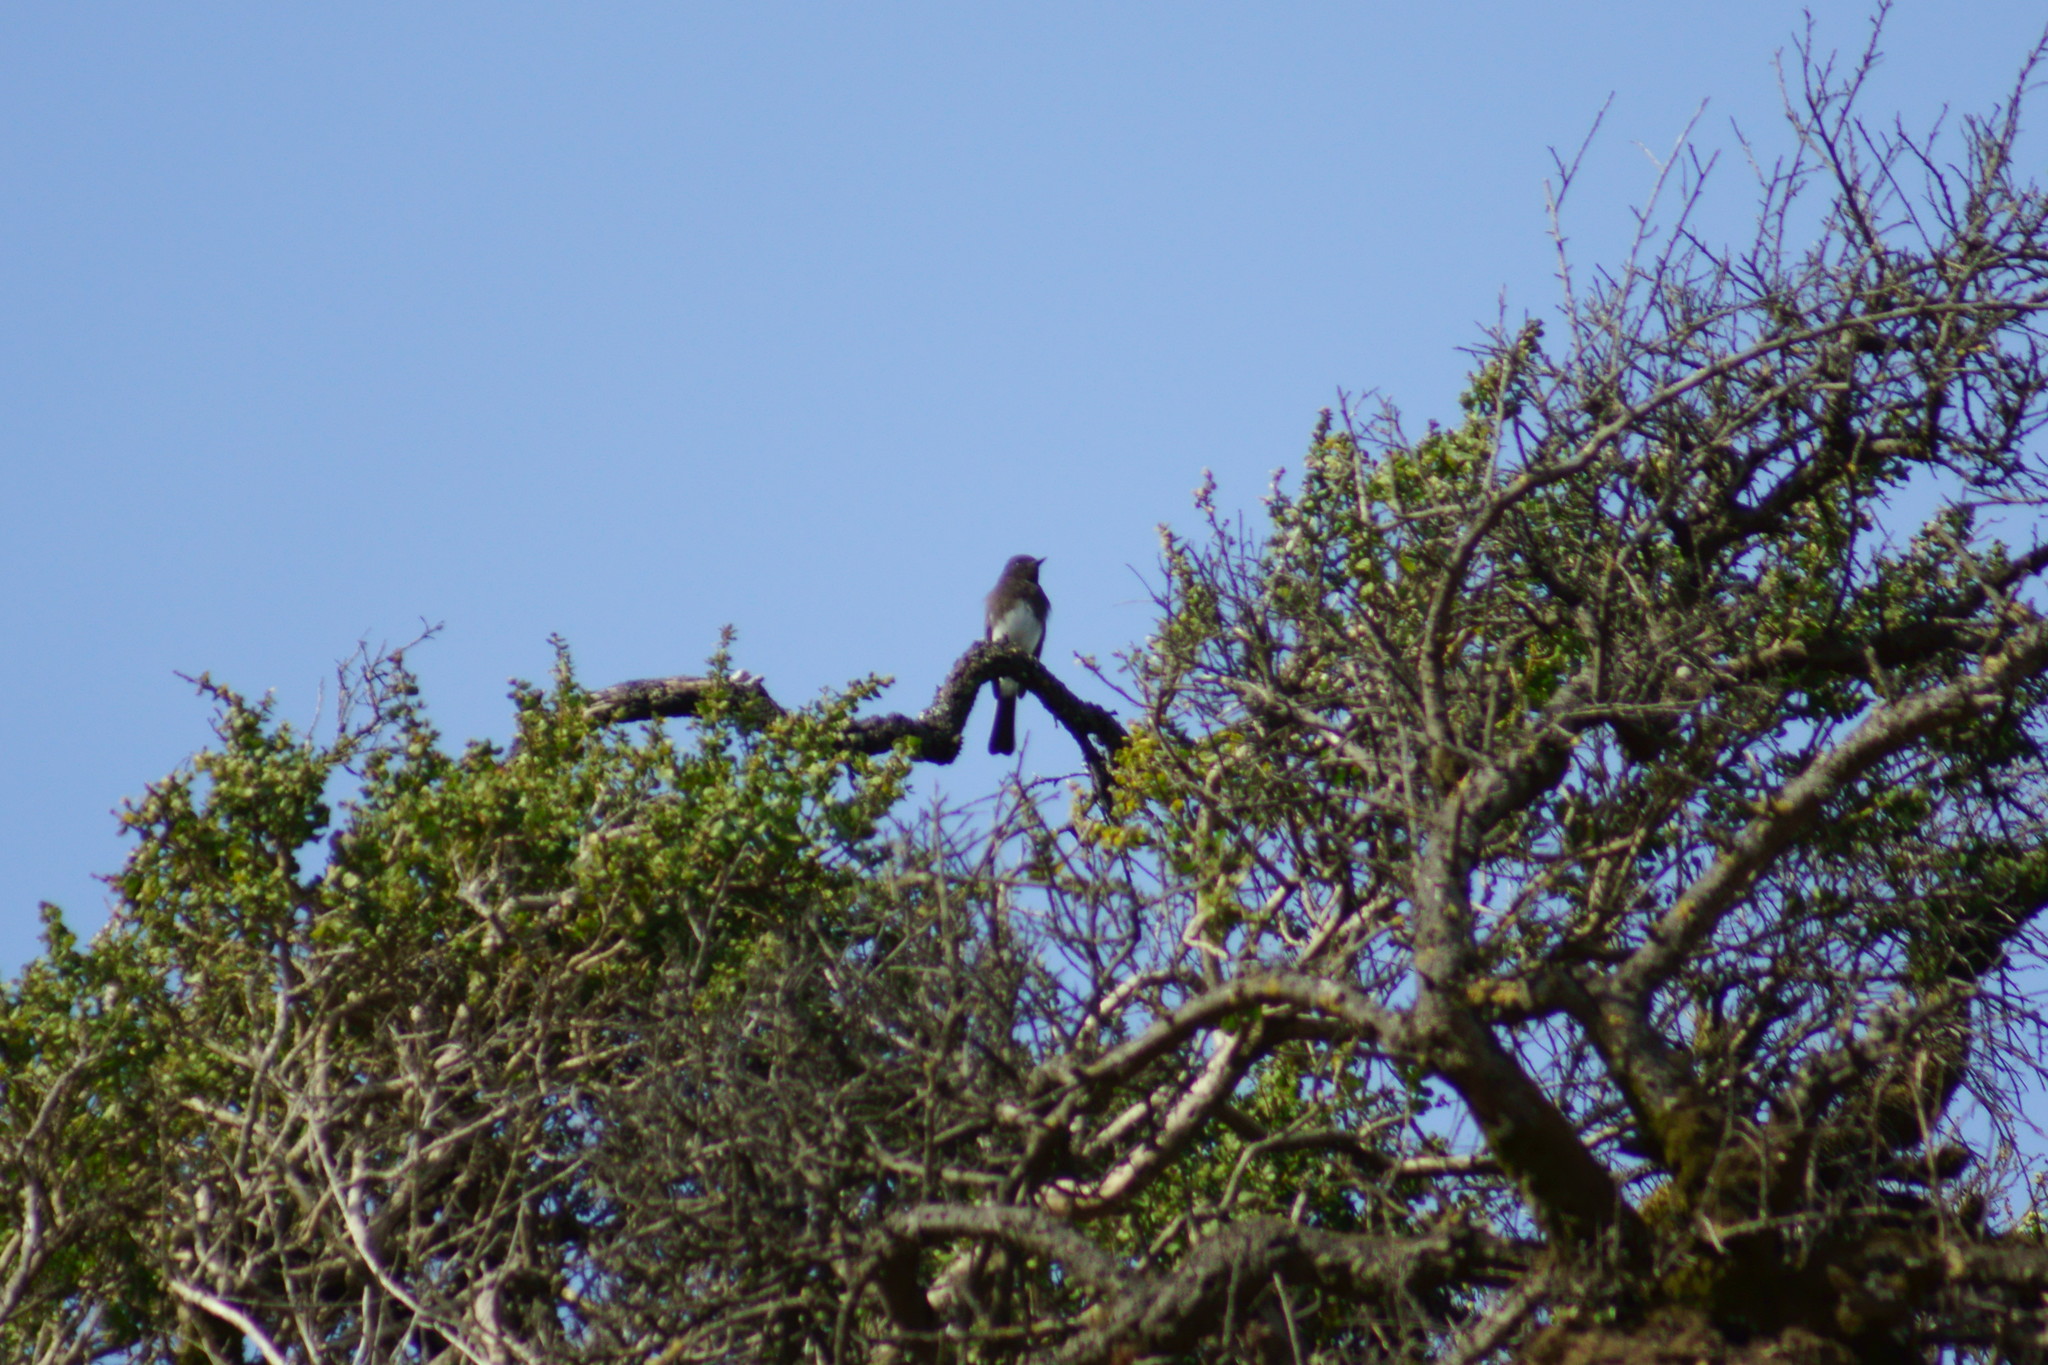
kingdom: Animalia
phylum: Chordata
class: Aves
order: Passeriformes
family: Tyrannidae
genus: Sayornis
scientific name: Sayornis nigricans
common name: Black phoebe
